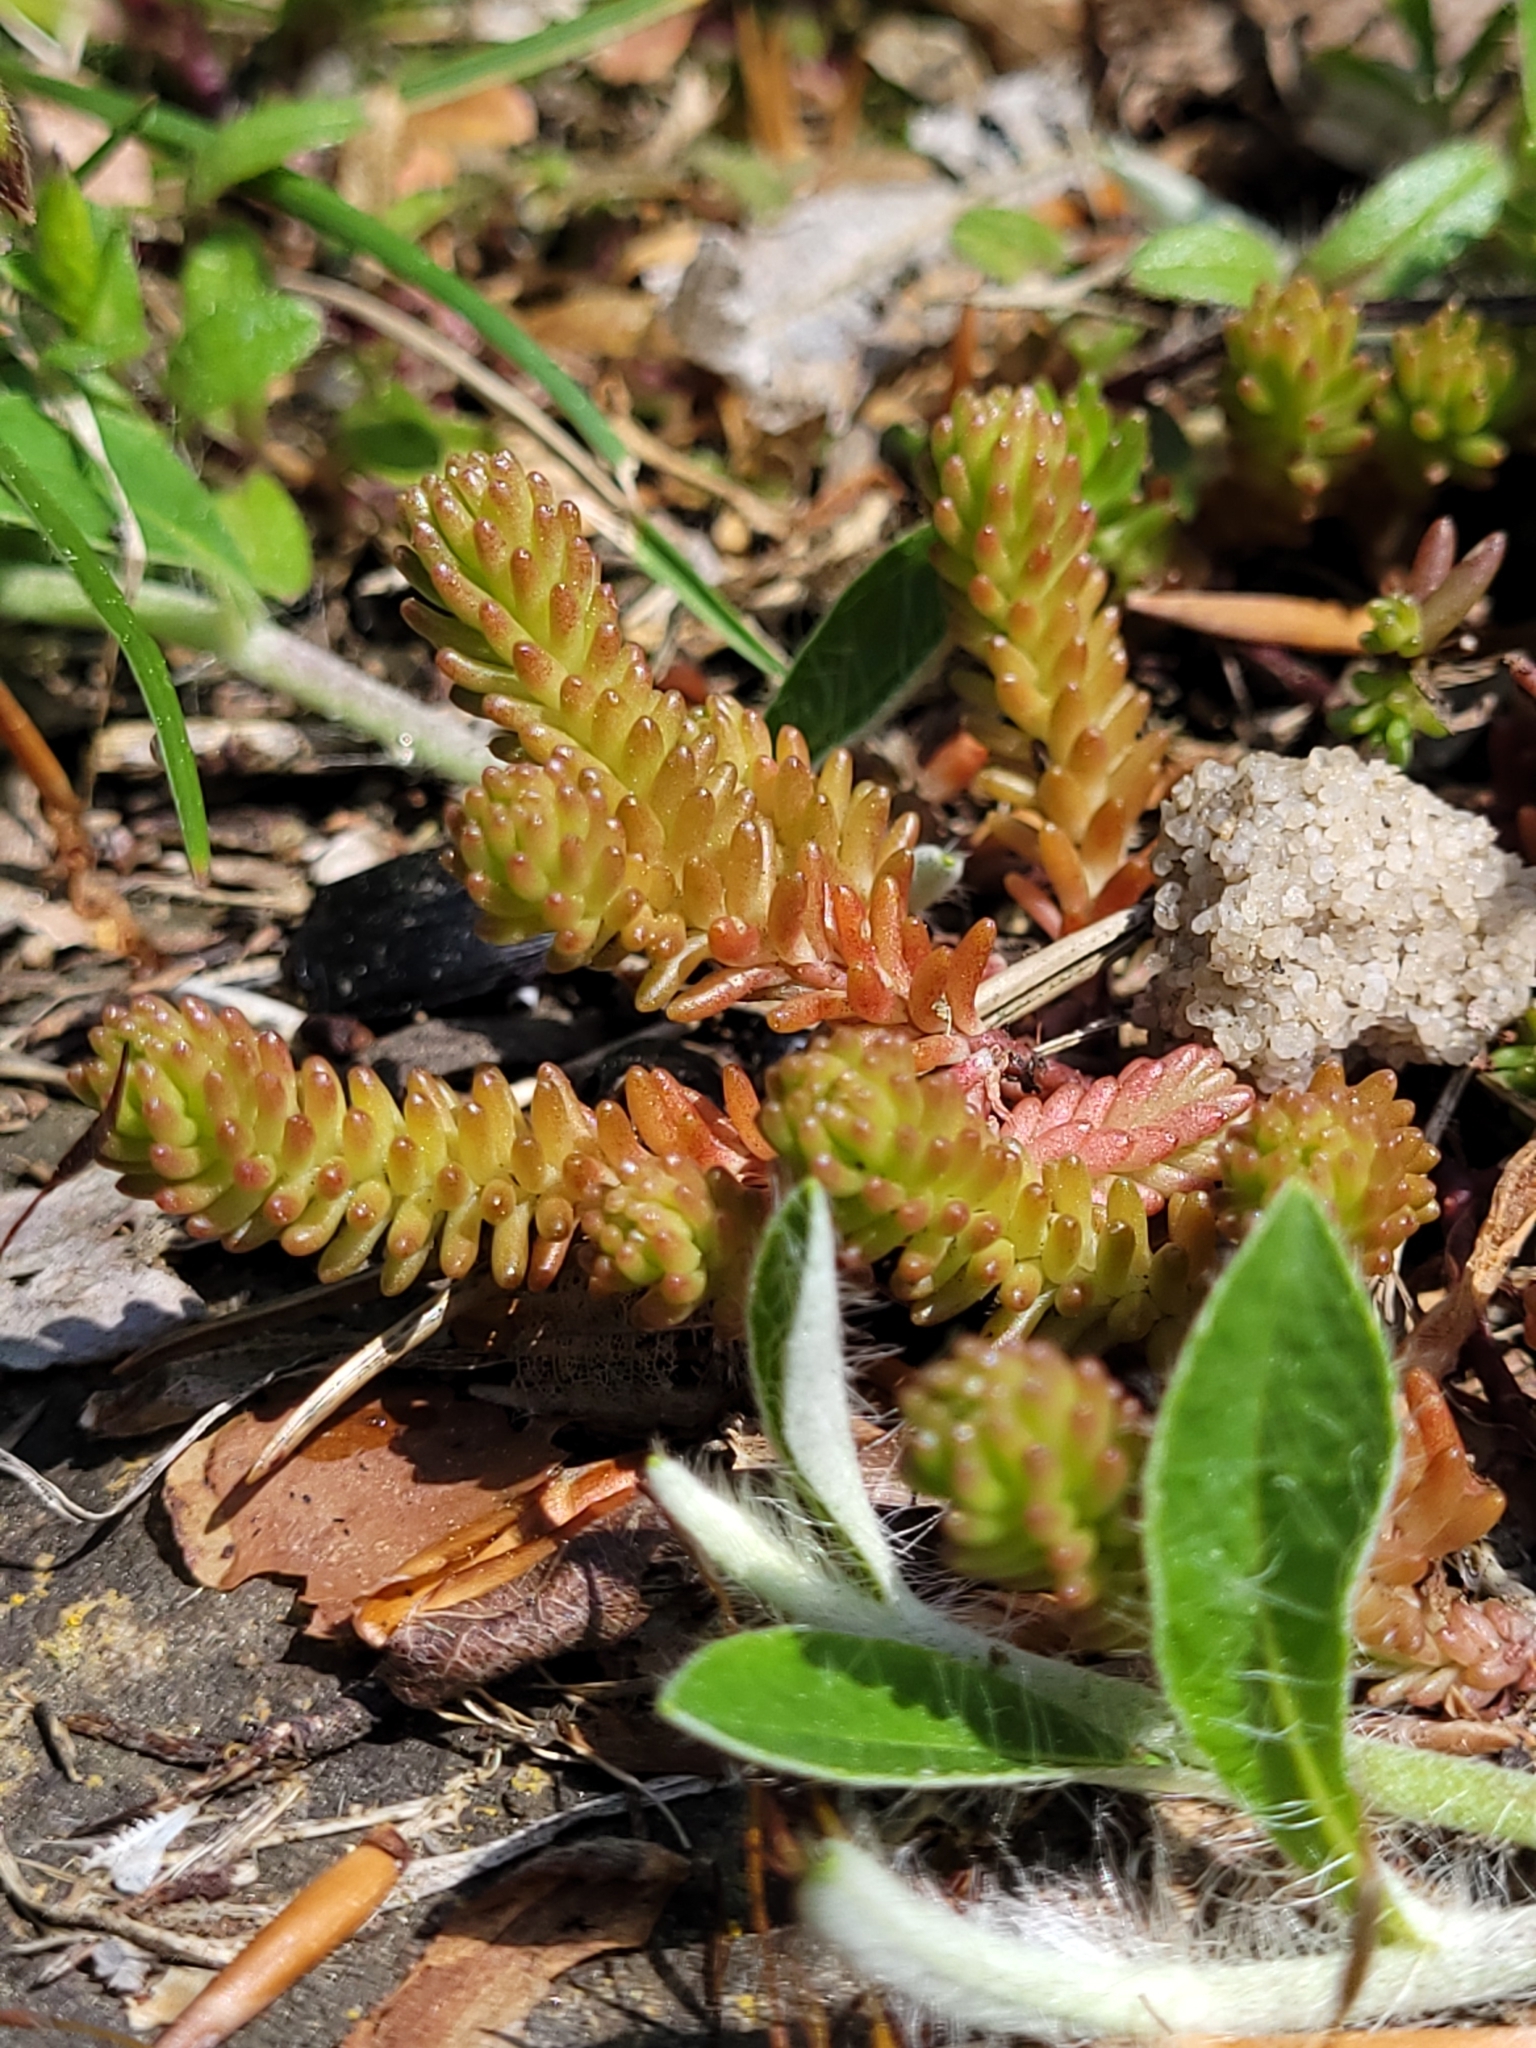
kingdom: Plantae
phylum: Tracheophyta
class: Magnoliopsida
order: Saxifragales
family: Crassulaceae
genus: Sedum
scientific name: Sedum sexangulare
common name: Tasteless stonecrop
